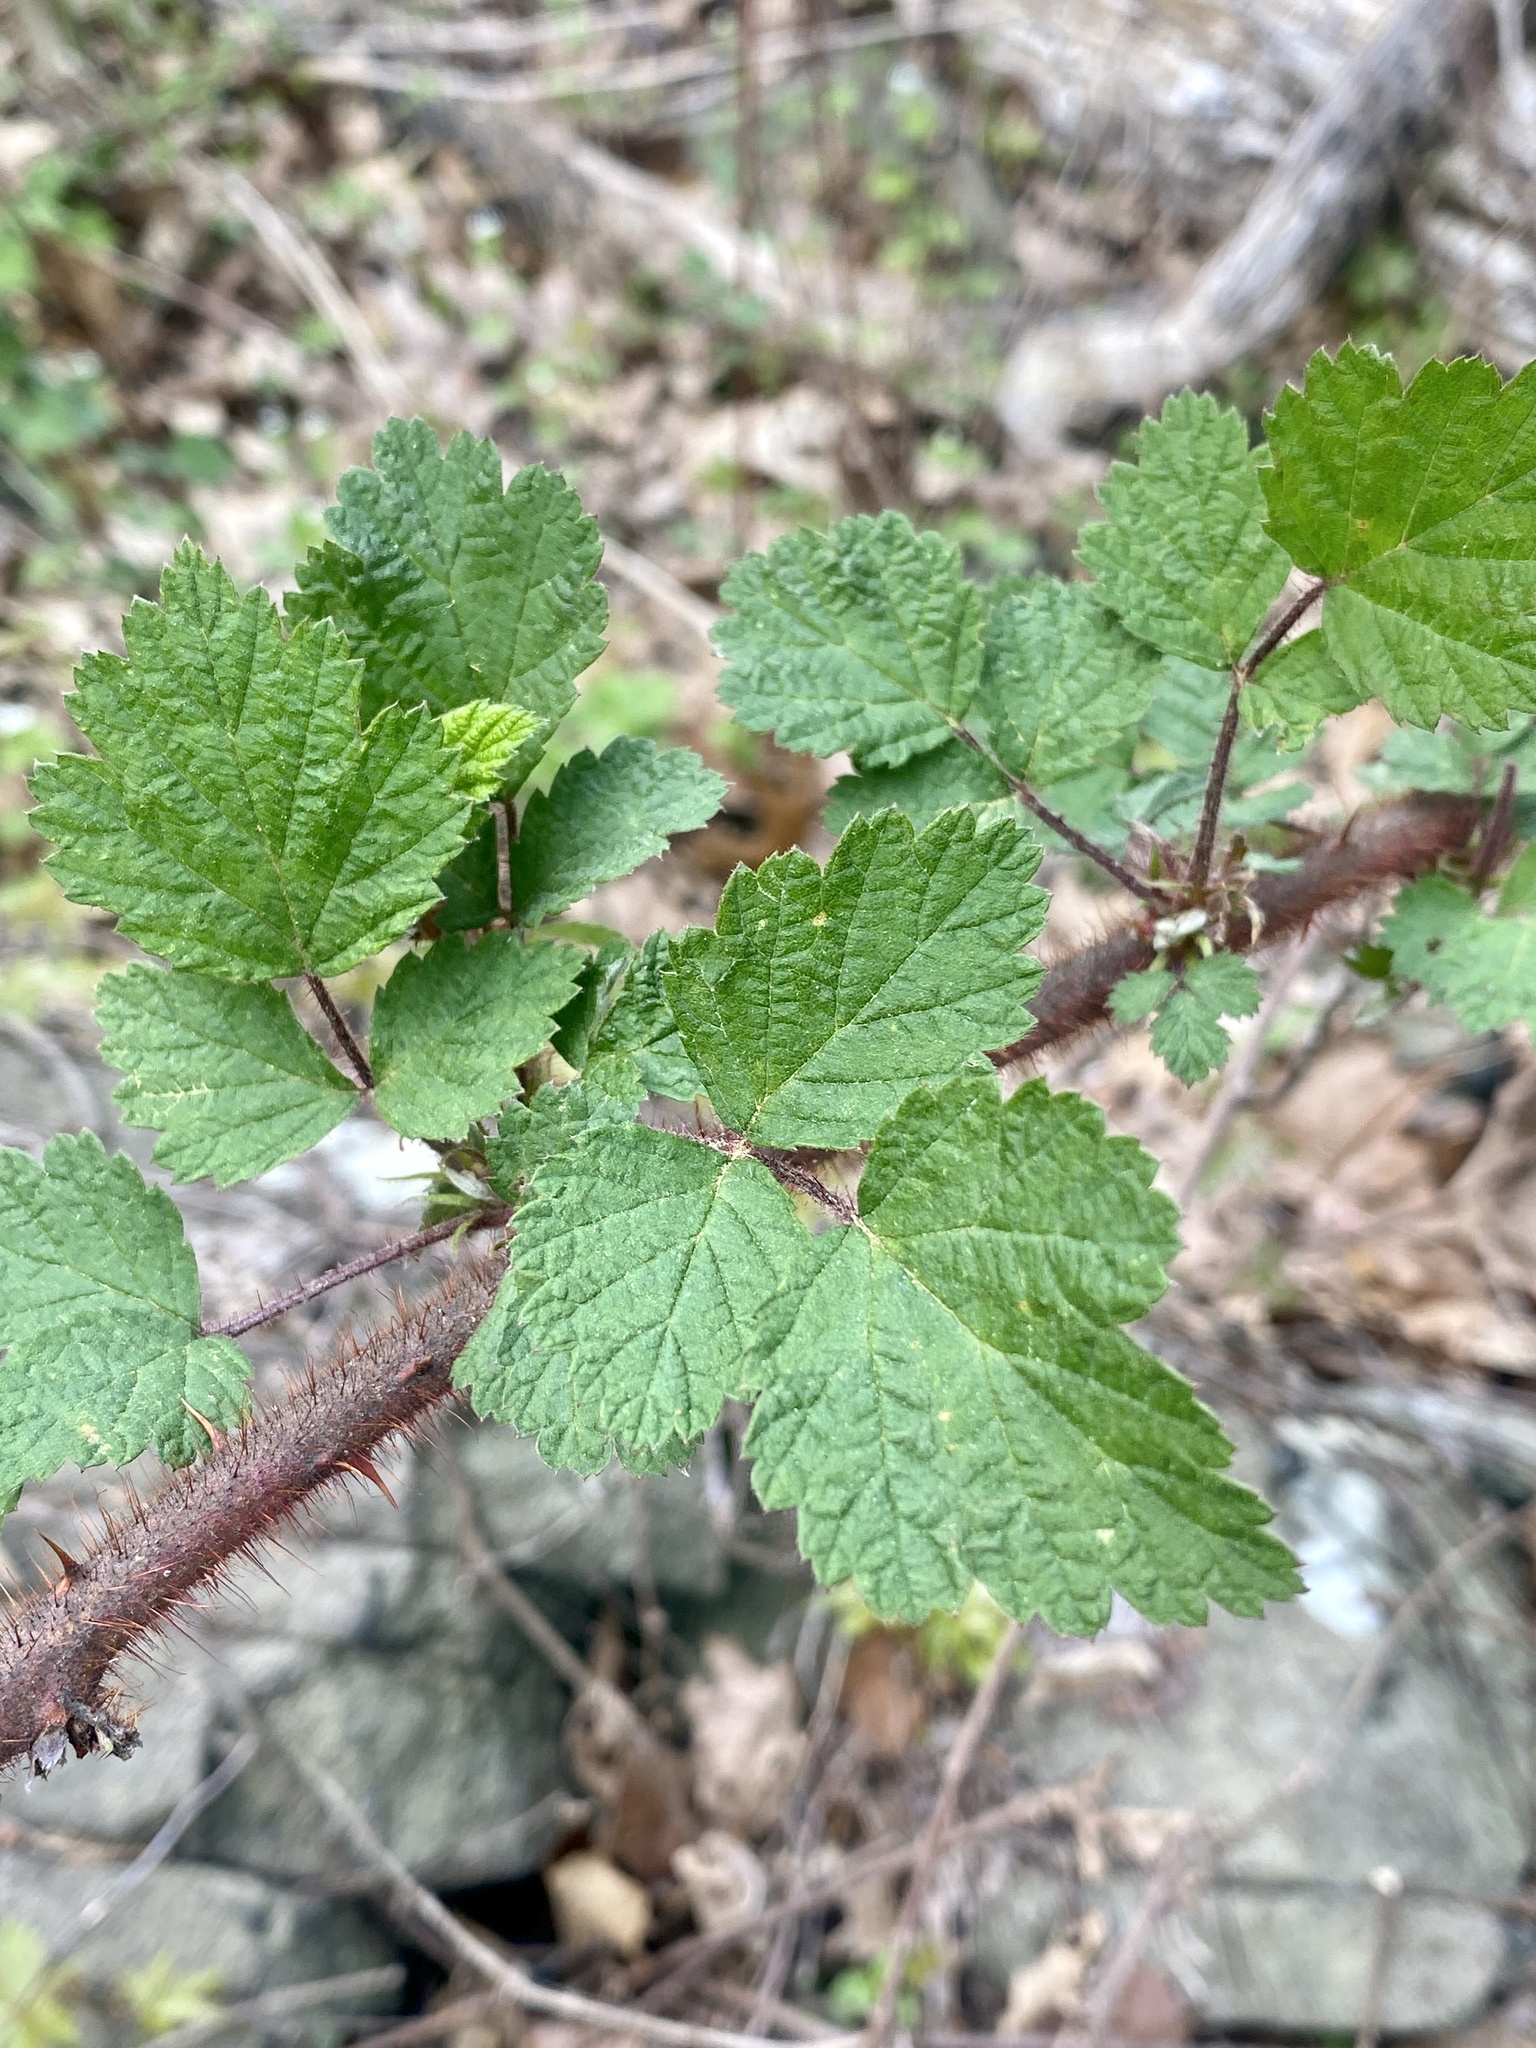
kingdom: Plantae
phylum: Tracheophyta
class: Magnoliopsida
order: Rosales
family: Rosaceae
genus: Rubus
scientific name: Rubus phoenicolasius
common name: Japanese wineberry
